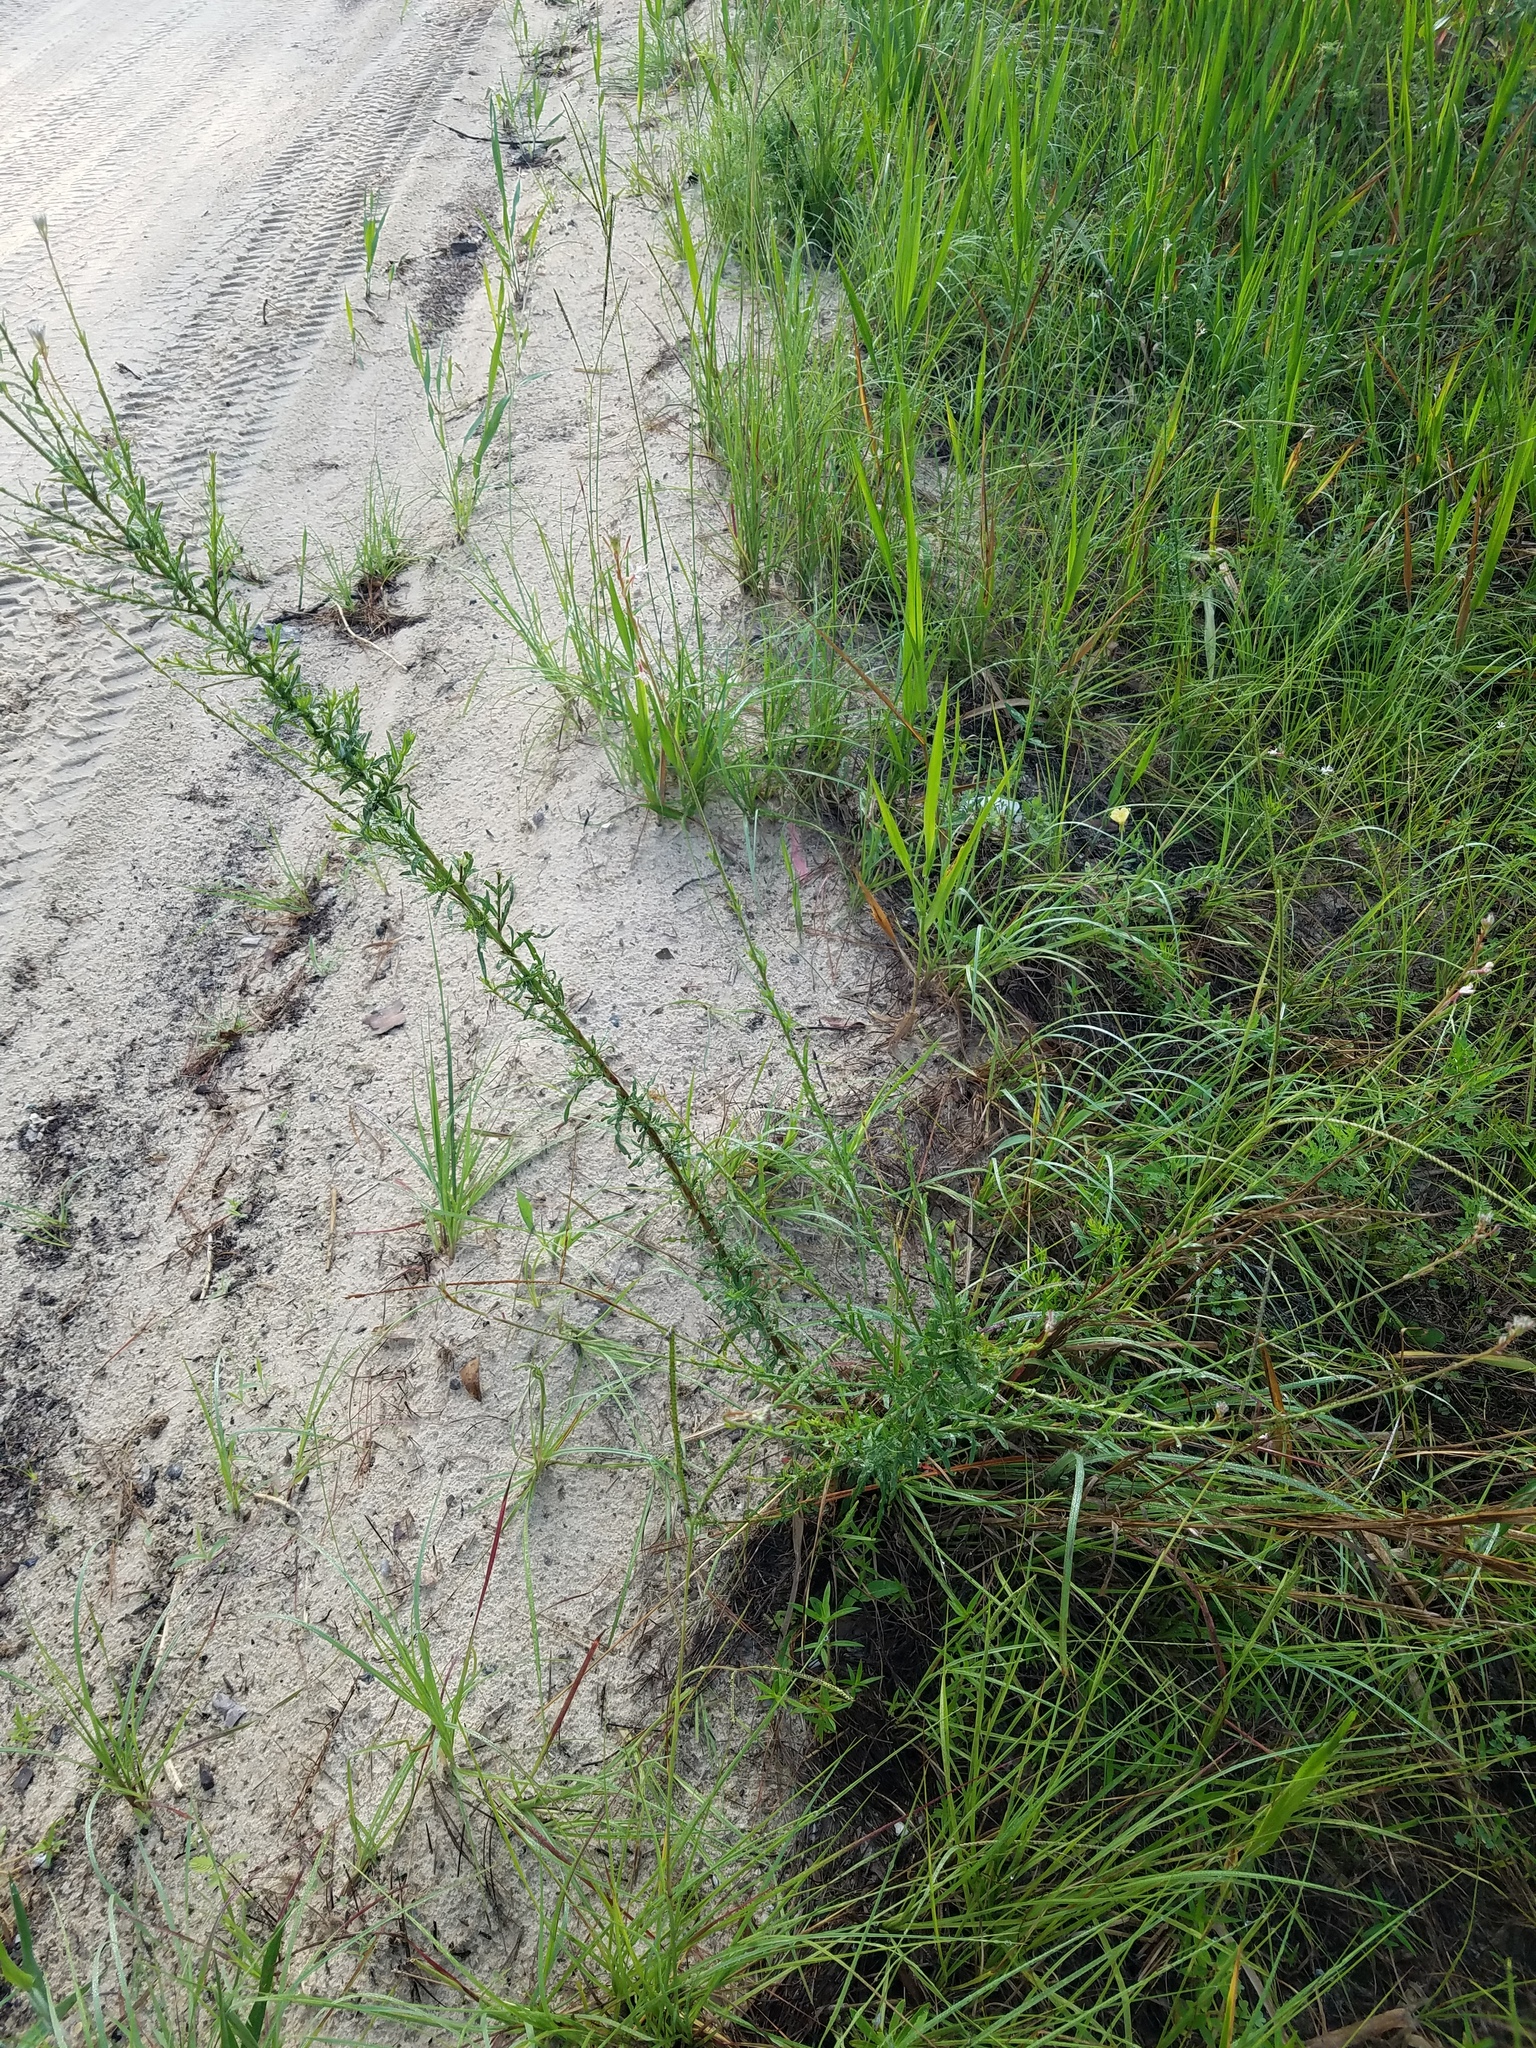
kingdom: Plantae
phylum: Tracheophyta
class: Magnoliopsida
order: Myrtales
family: Onagraceae
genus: Oenothera
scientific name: Oenothera simulans
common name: Southern beeblossom
